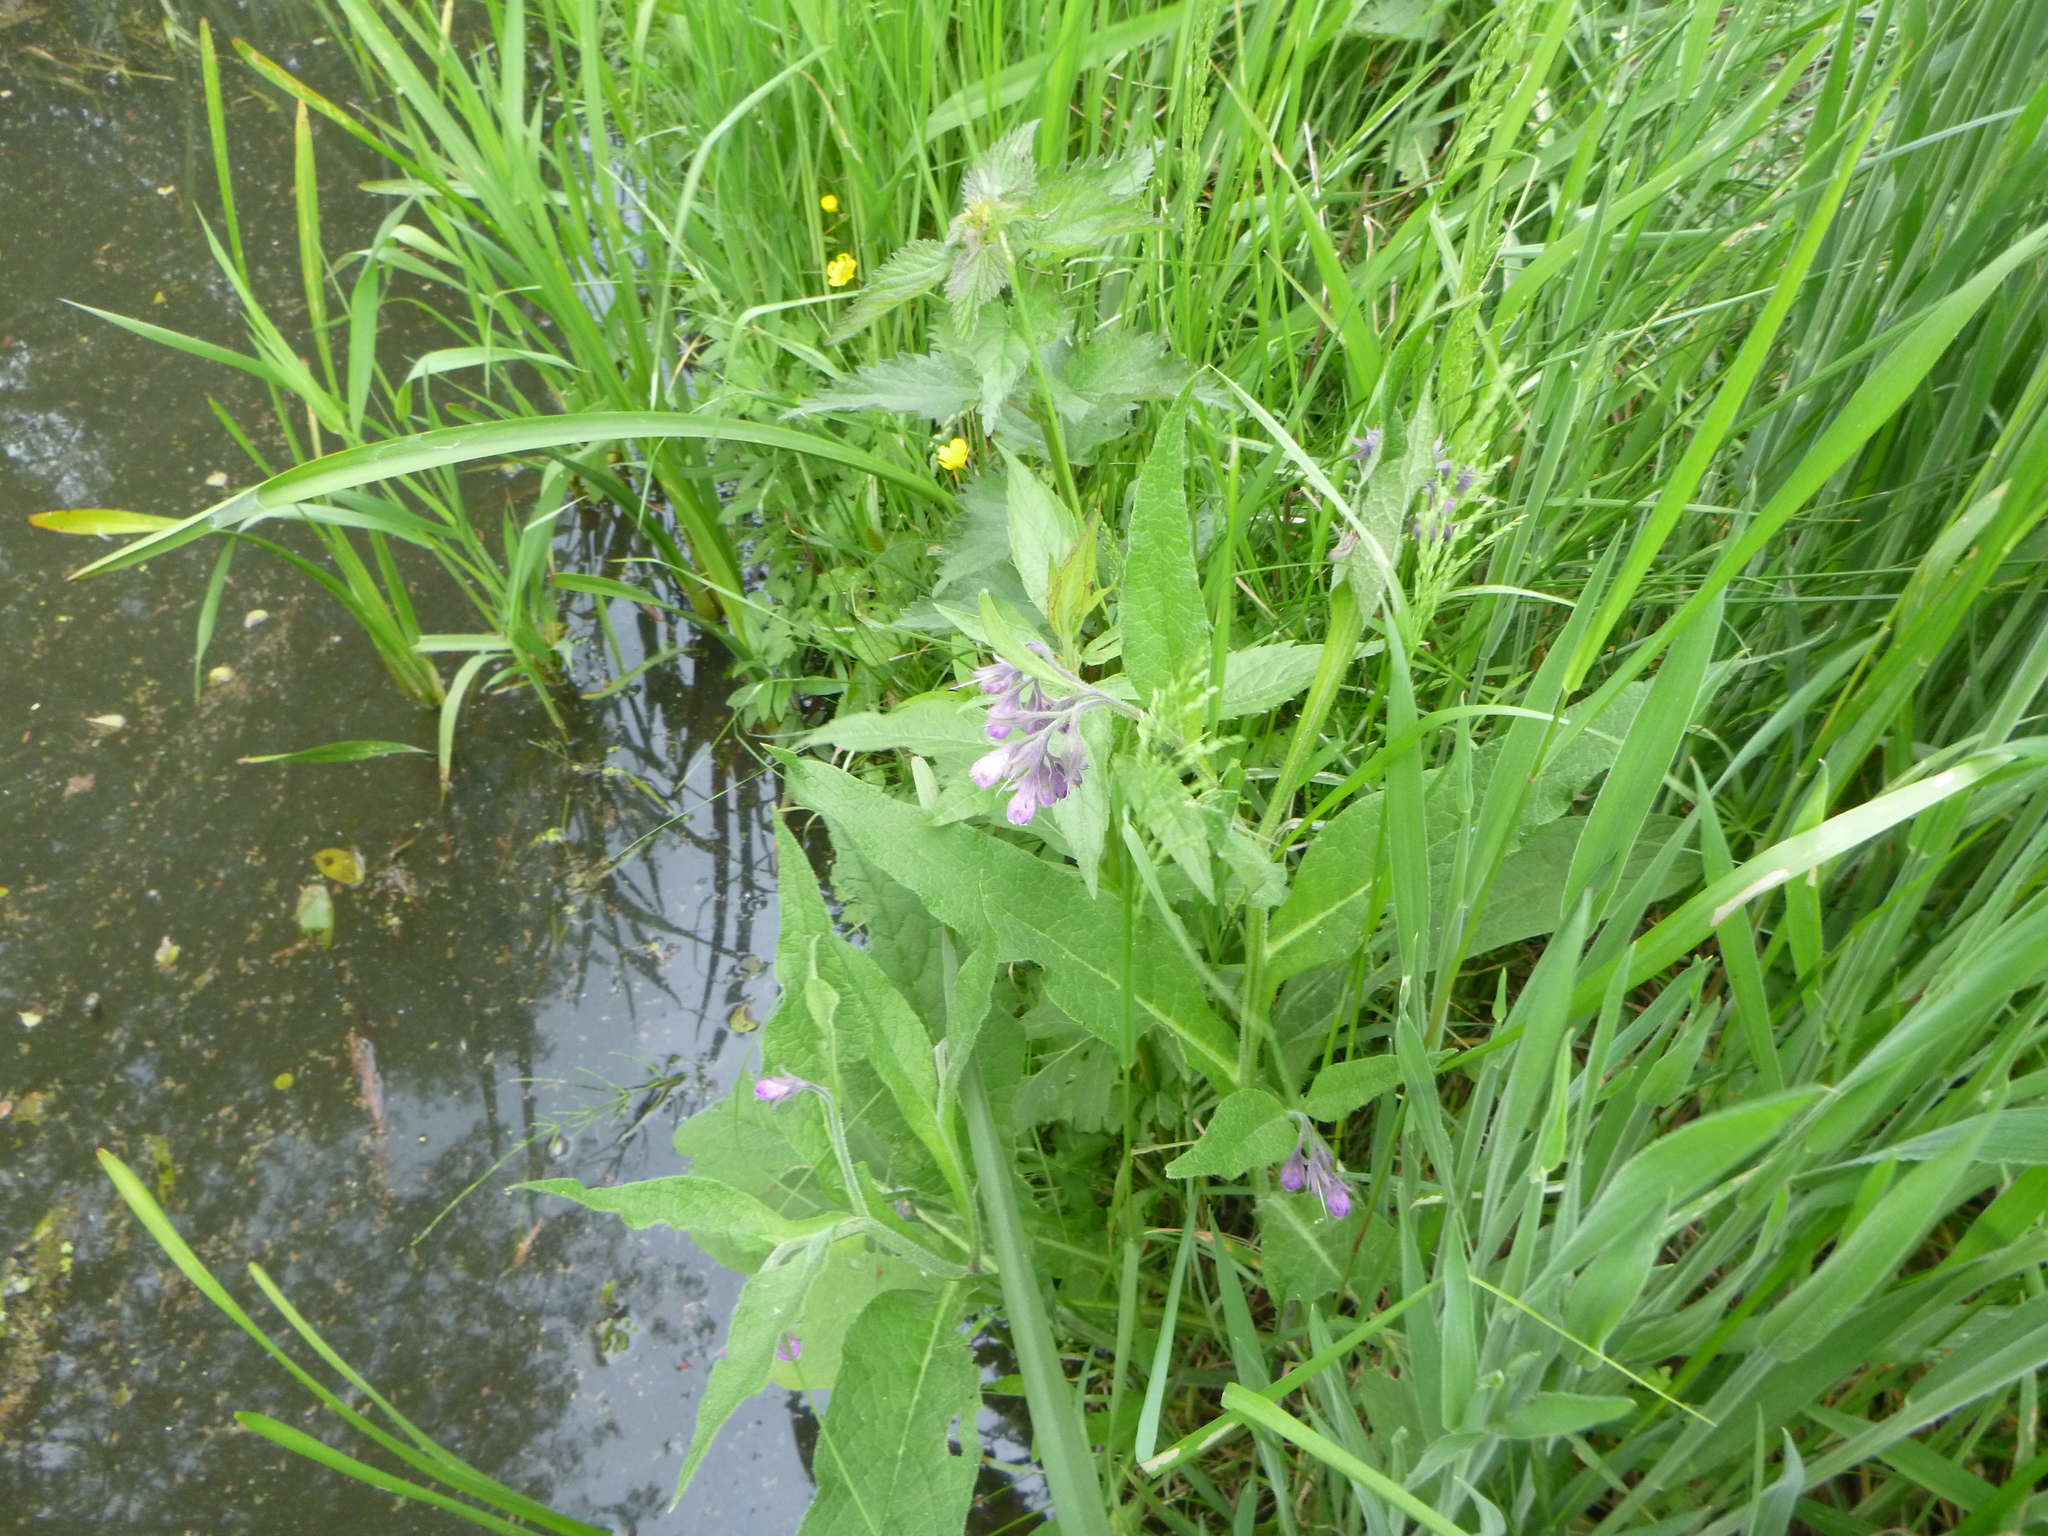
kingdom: Plantae
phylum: Tracheophyta
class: Magnoliopsida
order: Boraginales
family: Boraginaceae
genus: Symphytum
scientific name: Symphytum officinale
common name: Common comfrey
